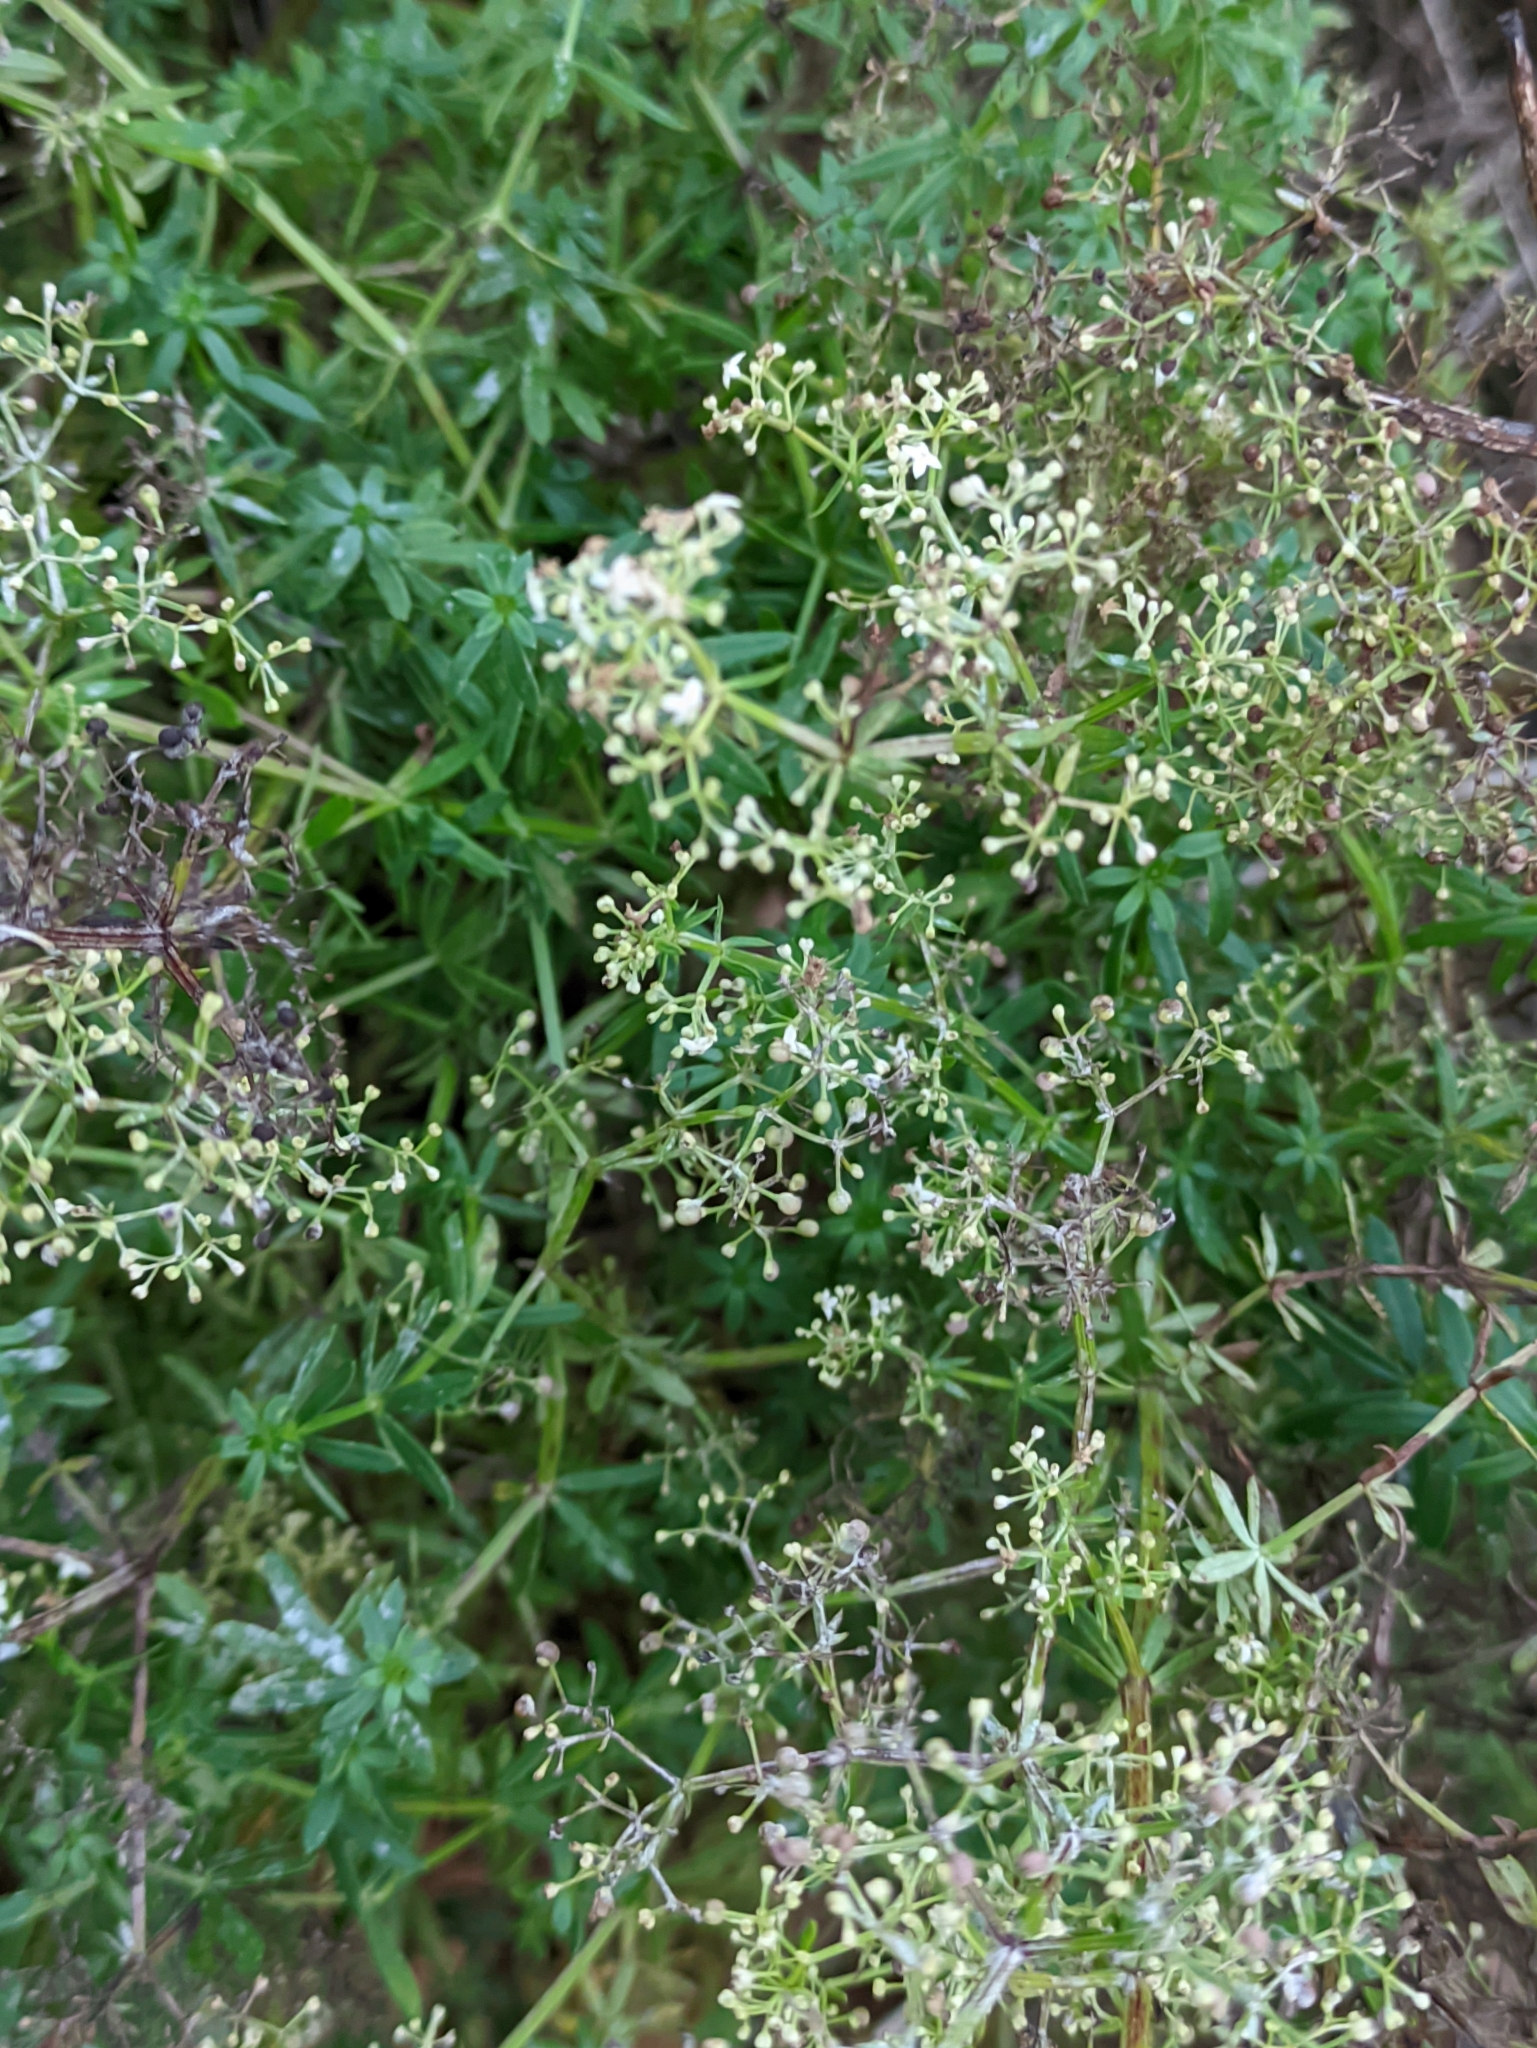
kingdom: Plantae
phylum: Tracheophyta
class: Magnoliopsida
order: Gentianales
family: Rubiaceae
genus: Galium
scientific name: Galium mollugo
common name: Hedge bedstraw
